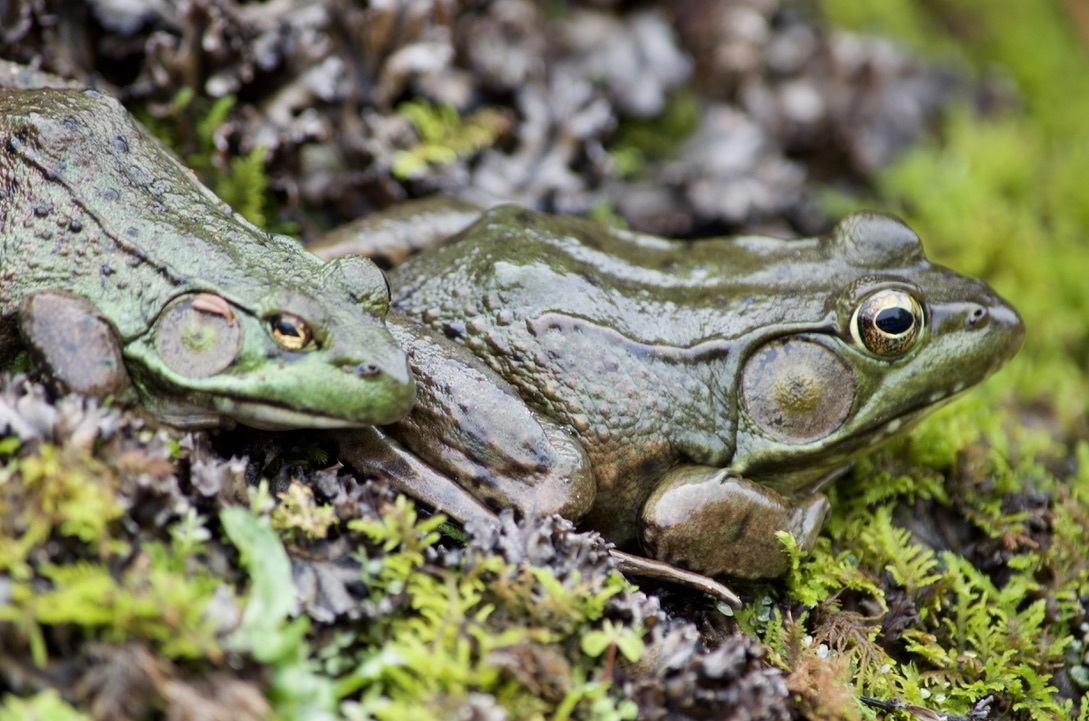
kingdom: Animalia
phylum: Chordata
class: Amphibia
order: Anura
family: Ranidae
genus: Lithobates
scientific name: Lithobates clamitans
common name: Green frog
